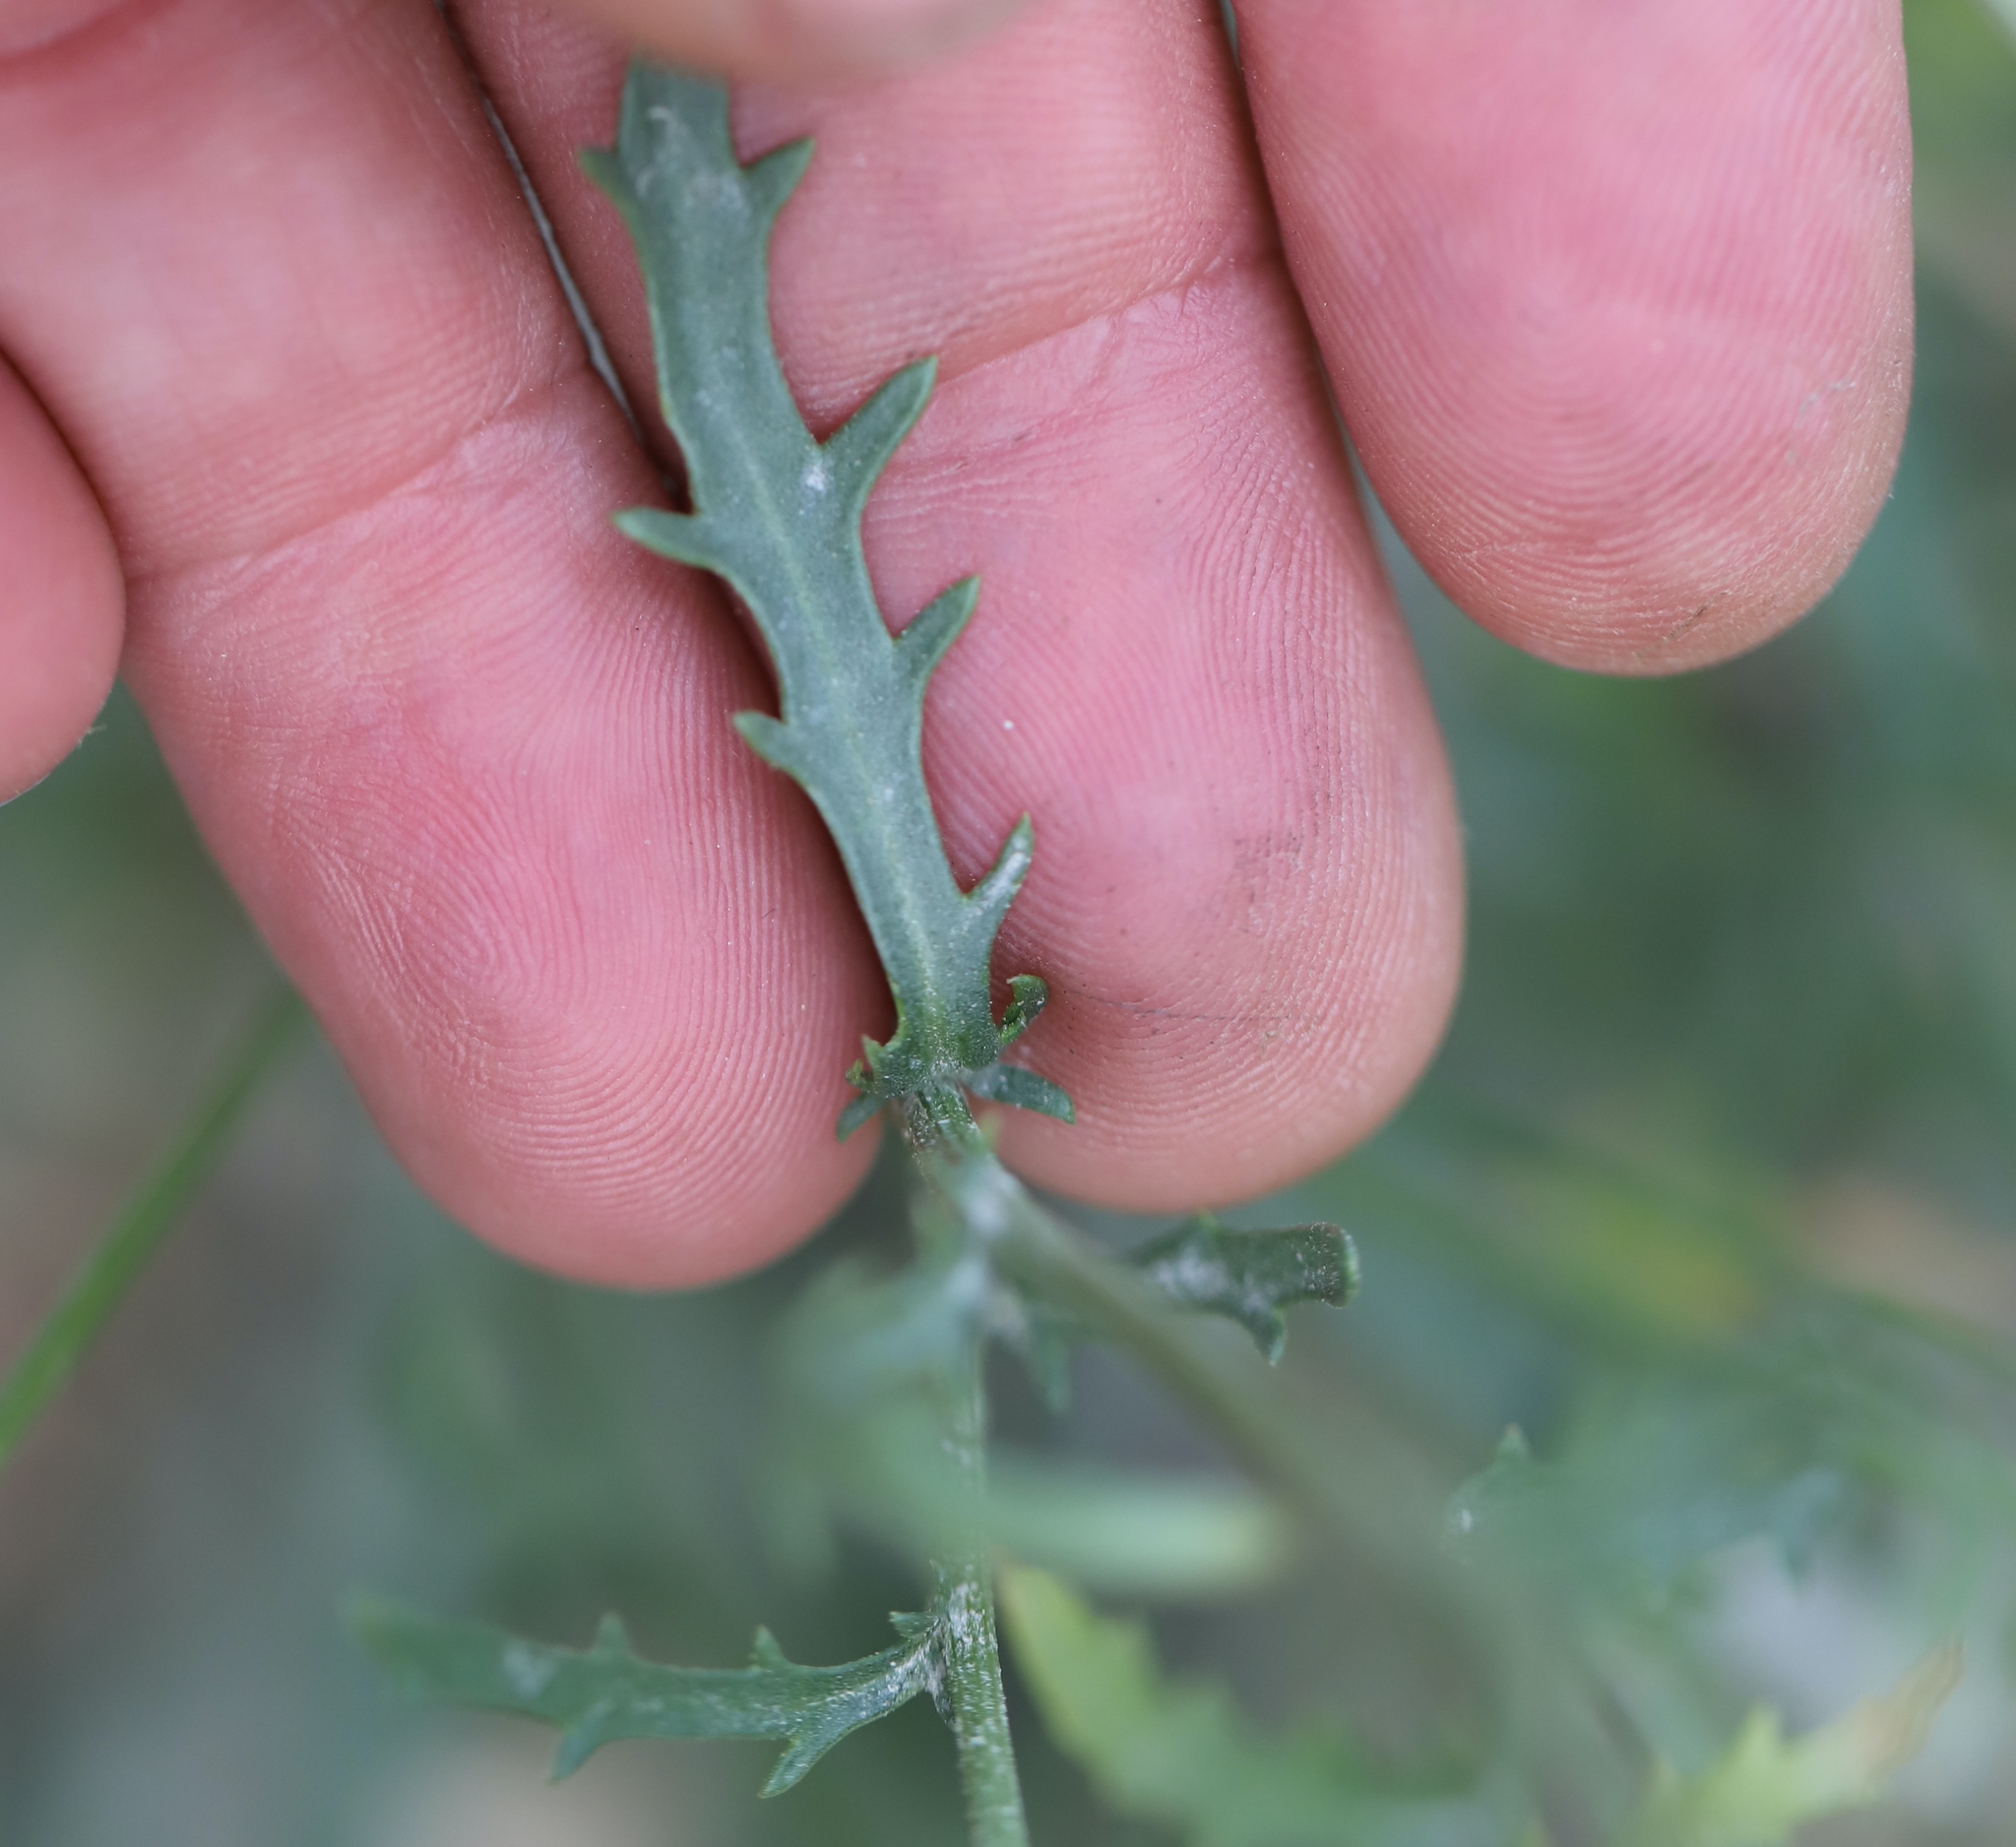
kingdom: Plantae
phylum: Tracheophyta
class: Magnoliopsida
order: Asterales
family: Asteraceae
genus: Leucanthemum
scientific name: Leucanthemum vulgare
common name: Oxeye daisy
